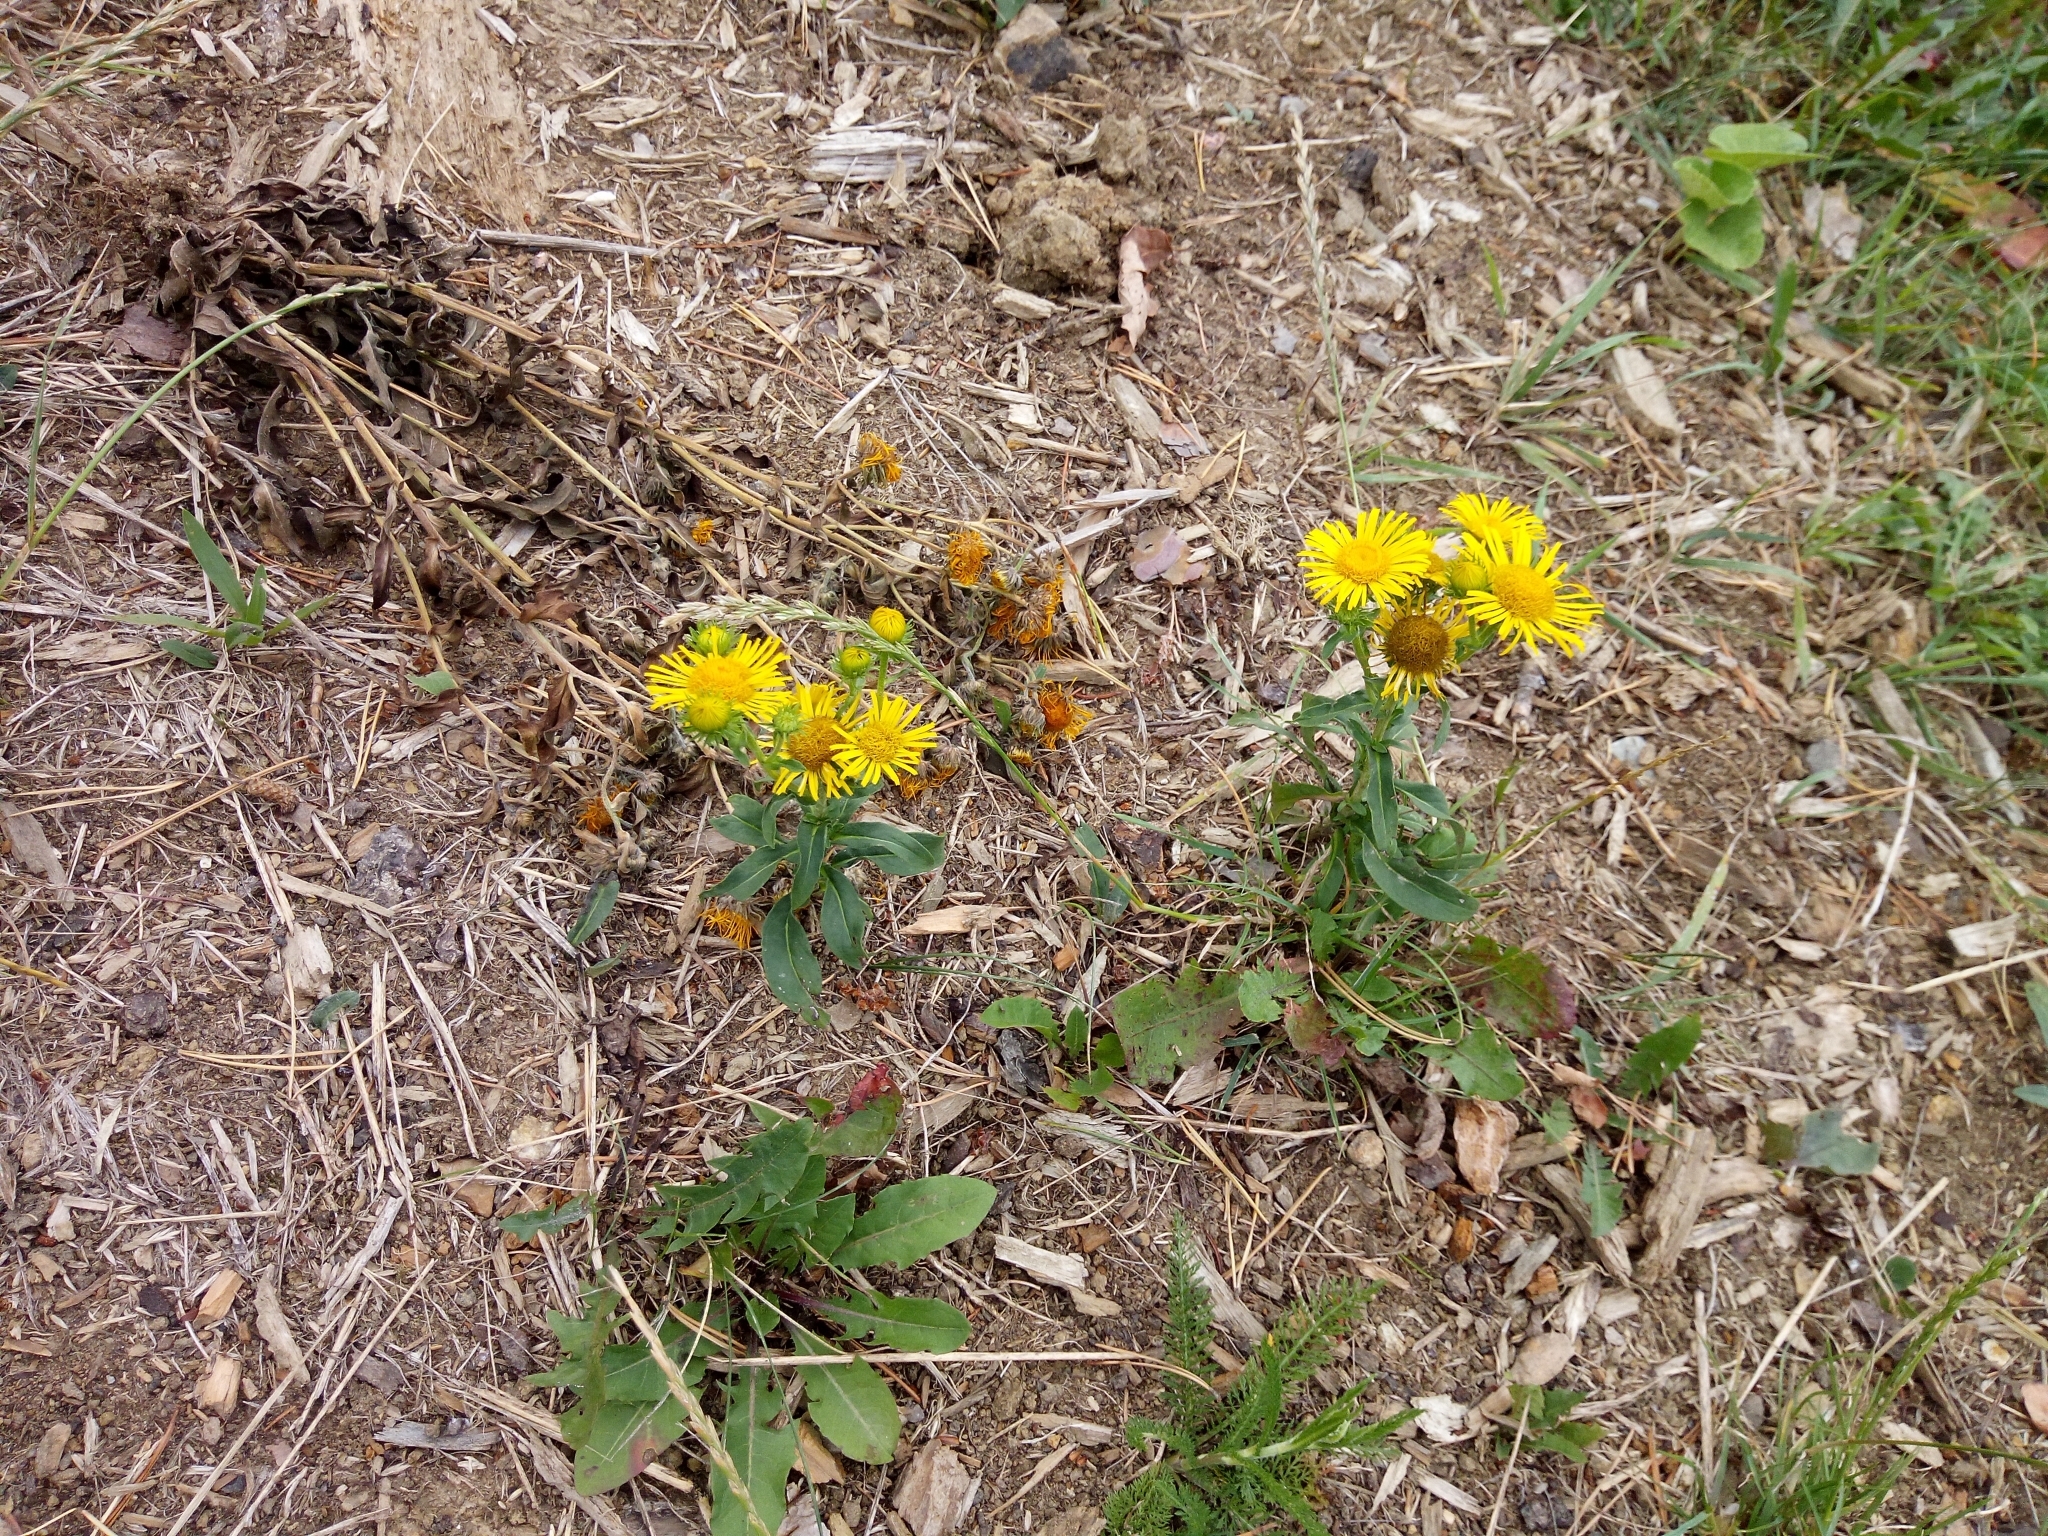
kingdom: Plantae
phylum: Tracheophyta
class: Magnoliopsida
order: Asterales
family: Asteraceae
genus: Pentanema
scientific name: Pentanema britannicum
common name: British elecampane
